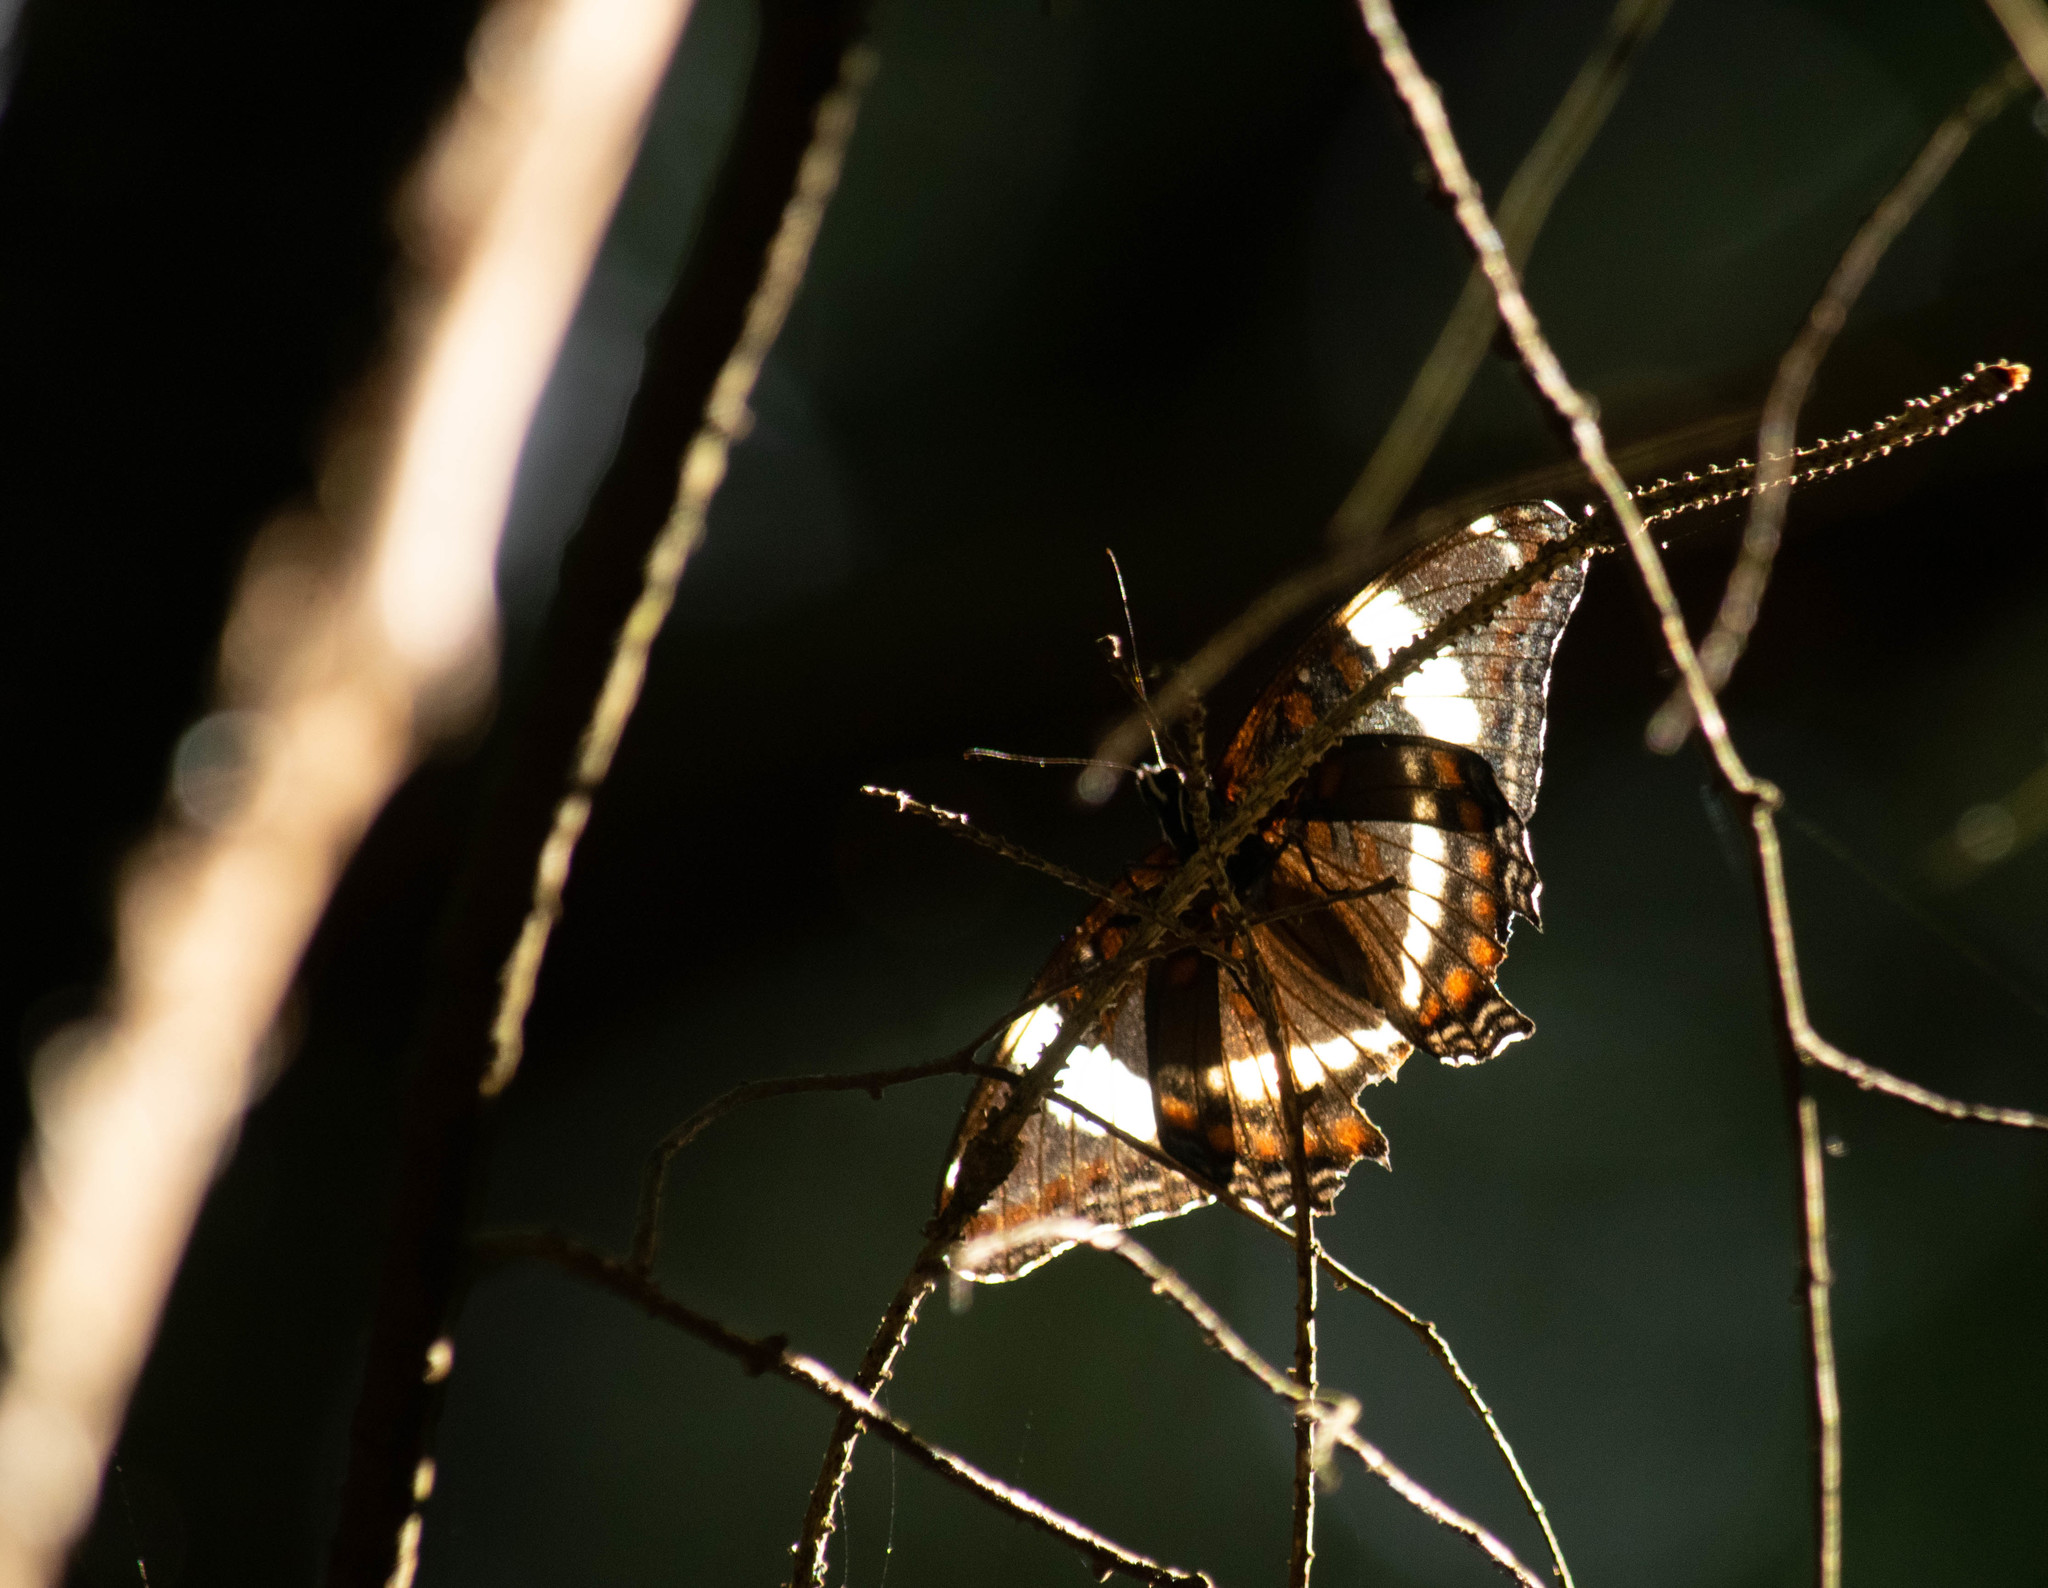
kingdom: Animalia
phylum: Arthropoda
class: Insecta
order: Lepidoptera
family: Nymphalidae
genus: Limenitis
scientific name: Limenitis arthemis
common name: Red-spotted admiral
